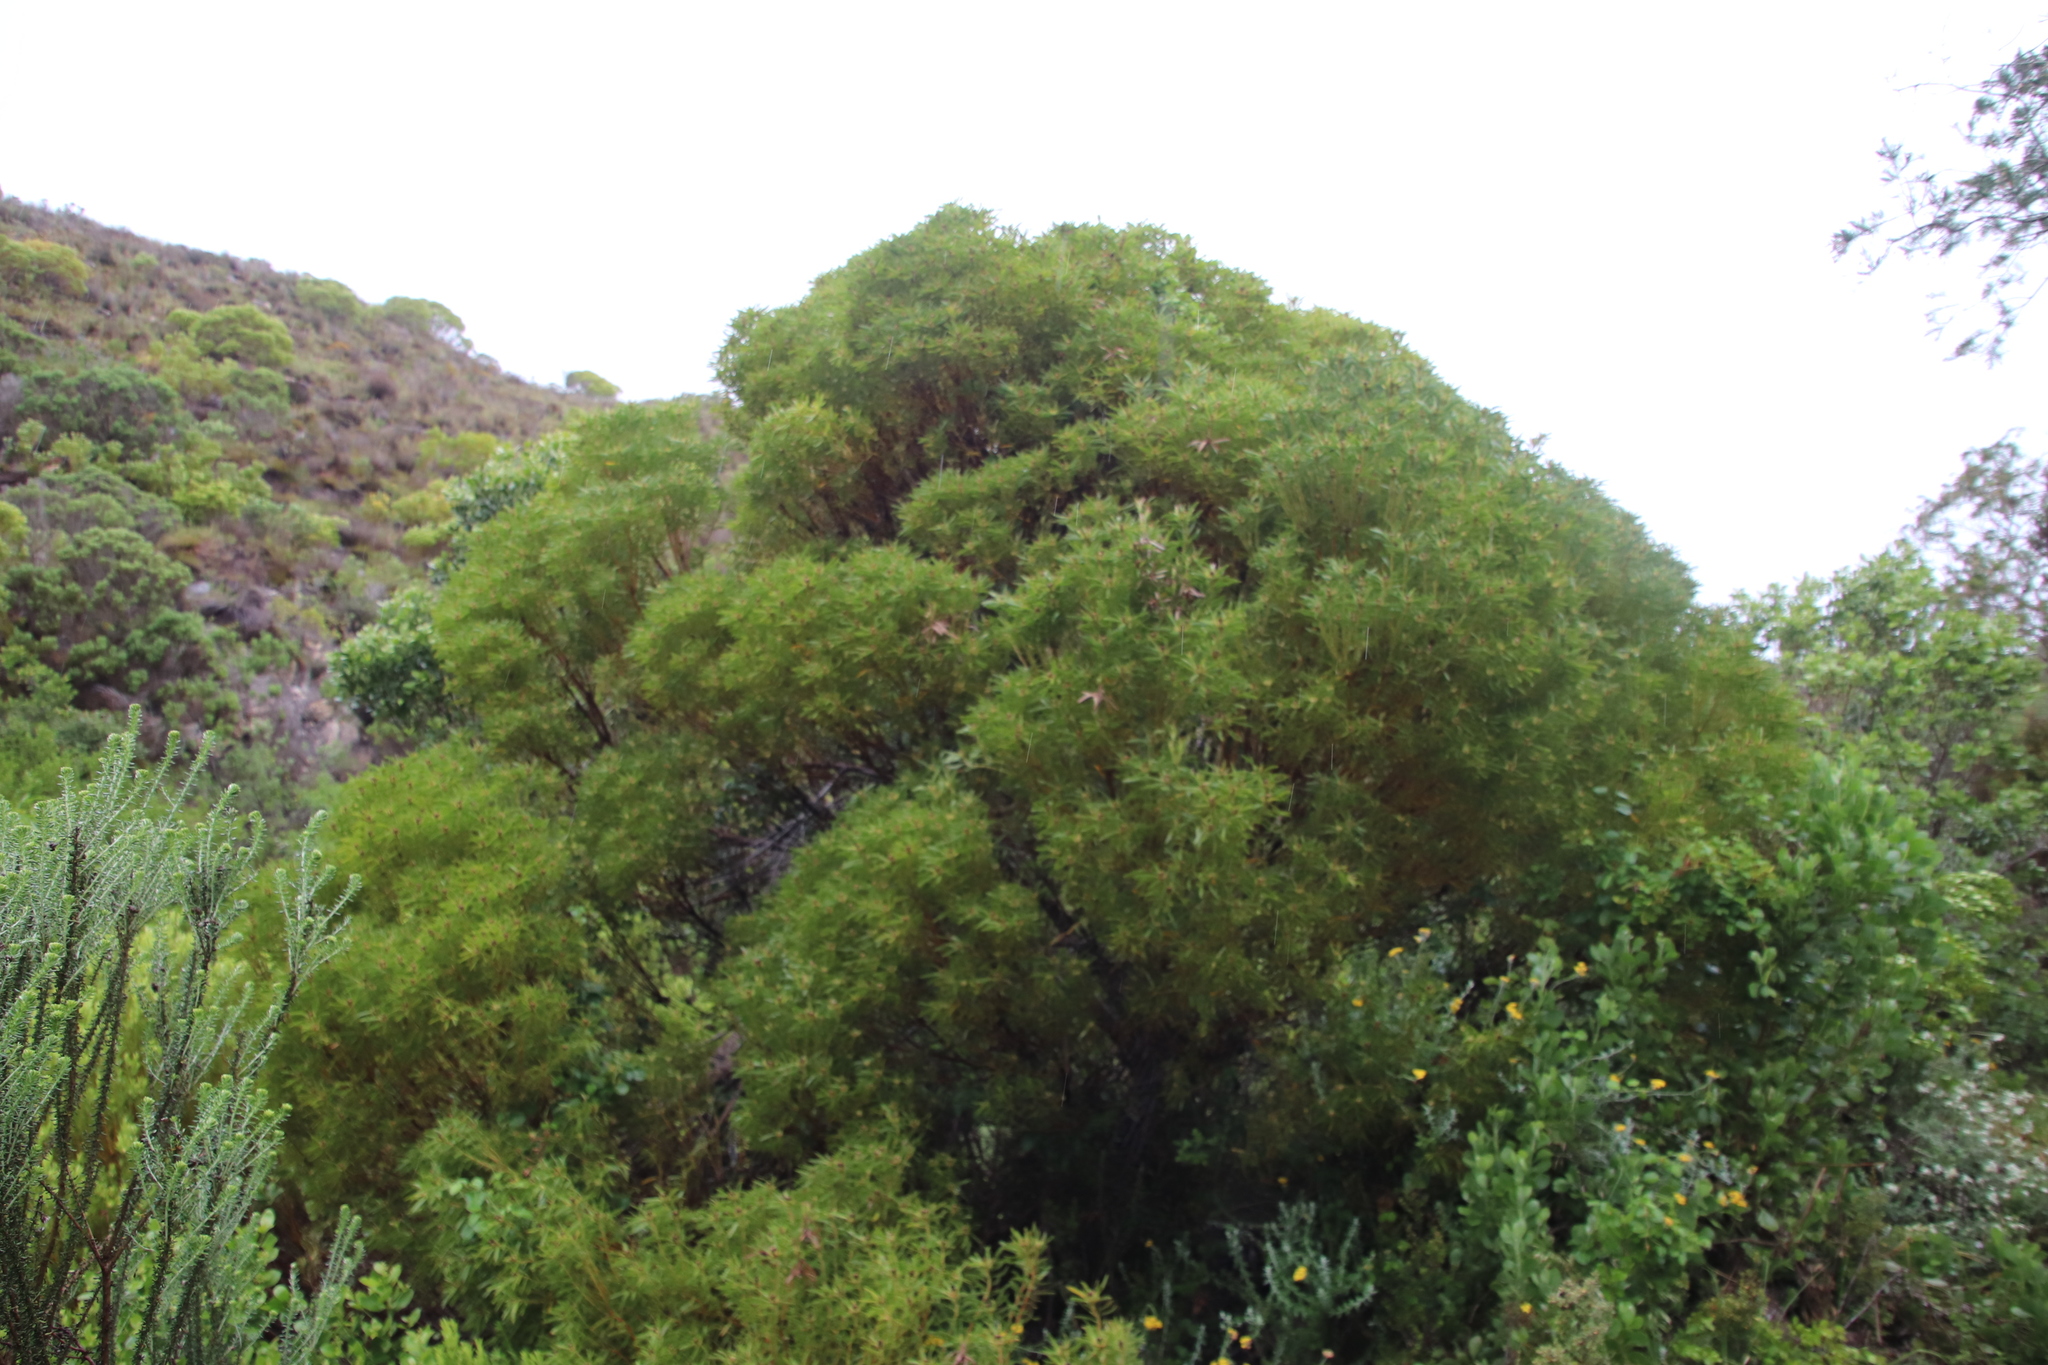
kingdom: Plantae
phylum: Tracheophyta
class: Magnoliopsida
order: Proteales
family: Proteaceae
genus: Leucadendron
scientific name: Leucadendron coniferum
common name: Dune conebush
